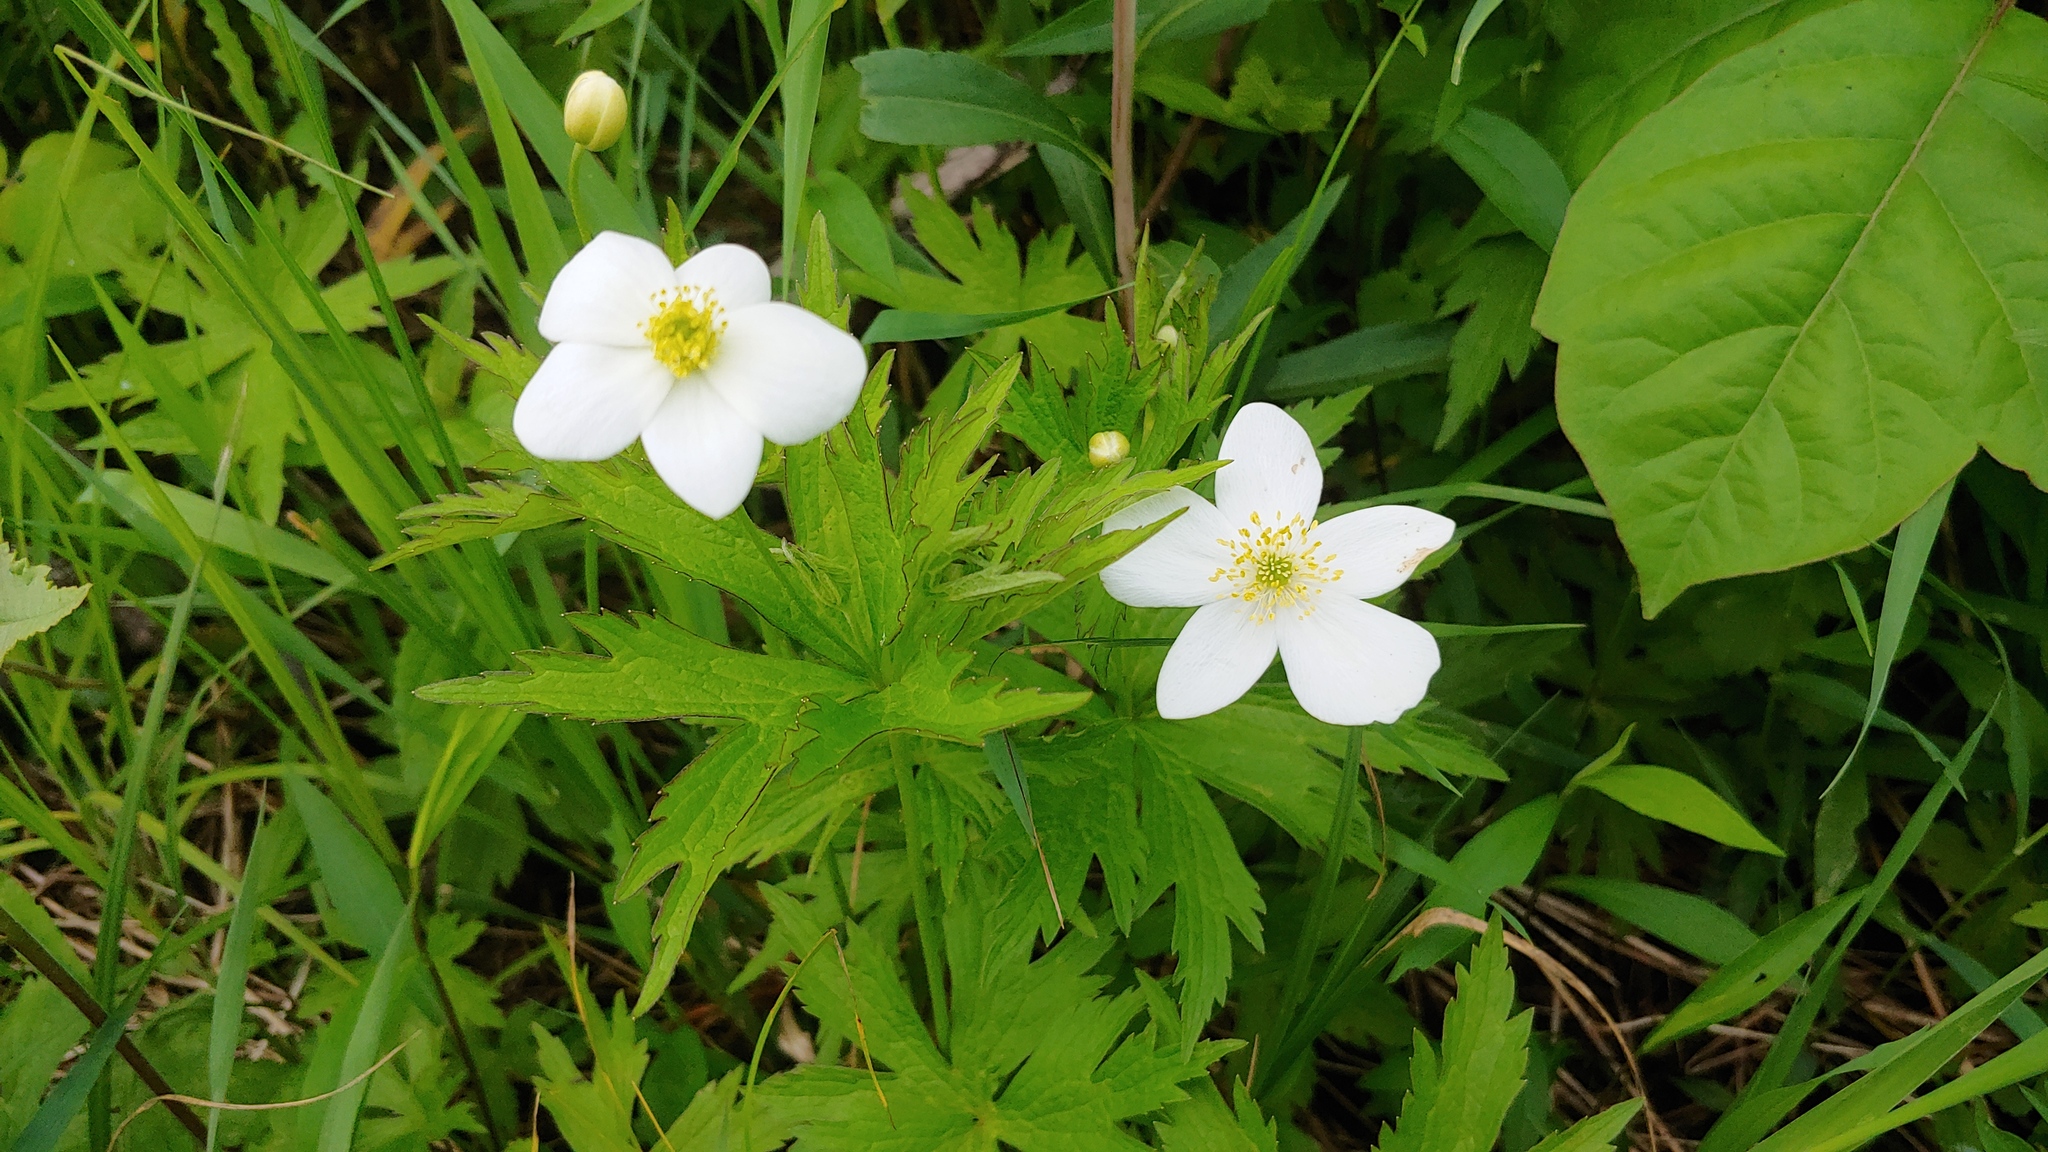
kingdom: Plantae
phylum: Tracheophyta
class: Magnoliopsida
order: Ranunculales
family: Ranunculaceae
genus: Anemonastrum
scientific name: Anemonastrum canadense
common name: Canada anemone
